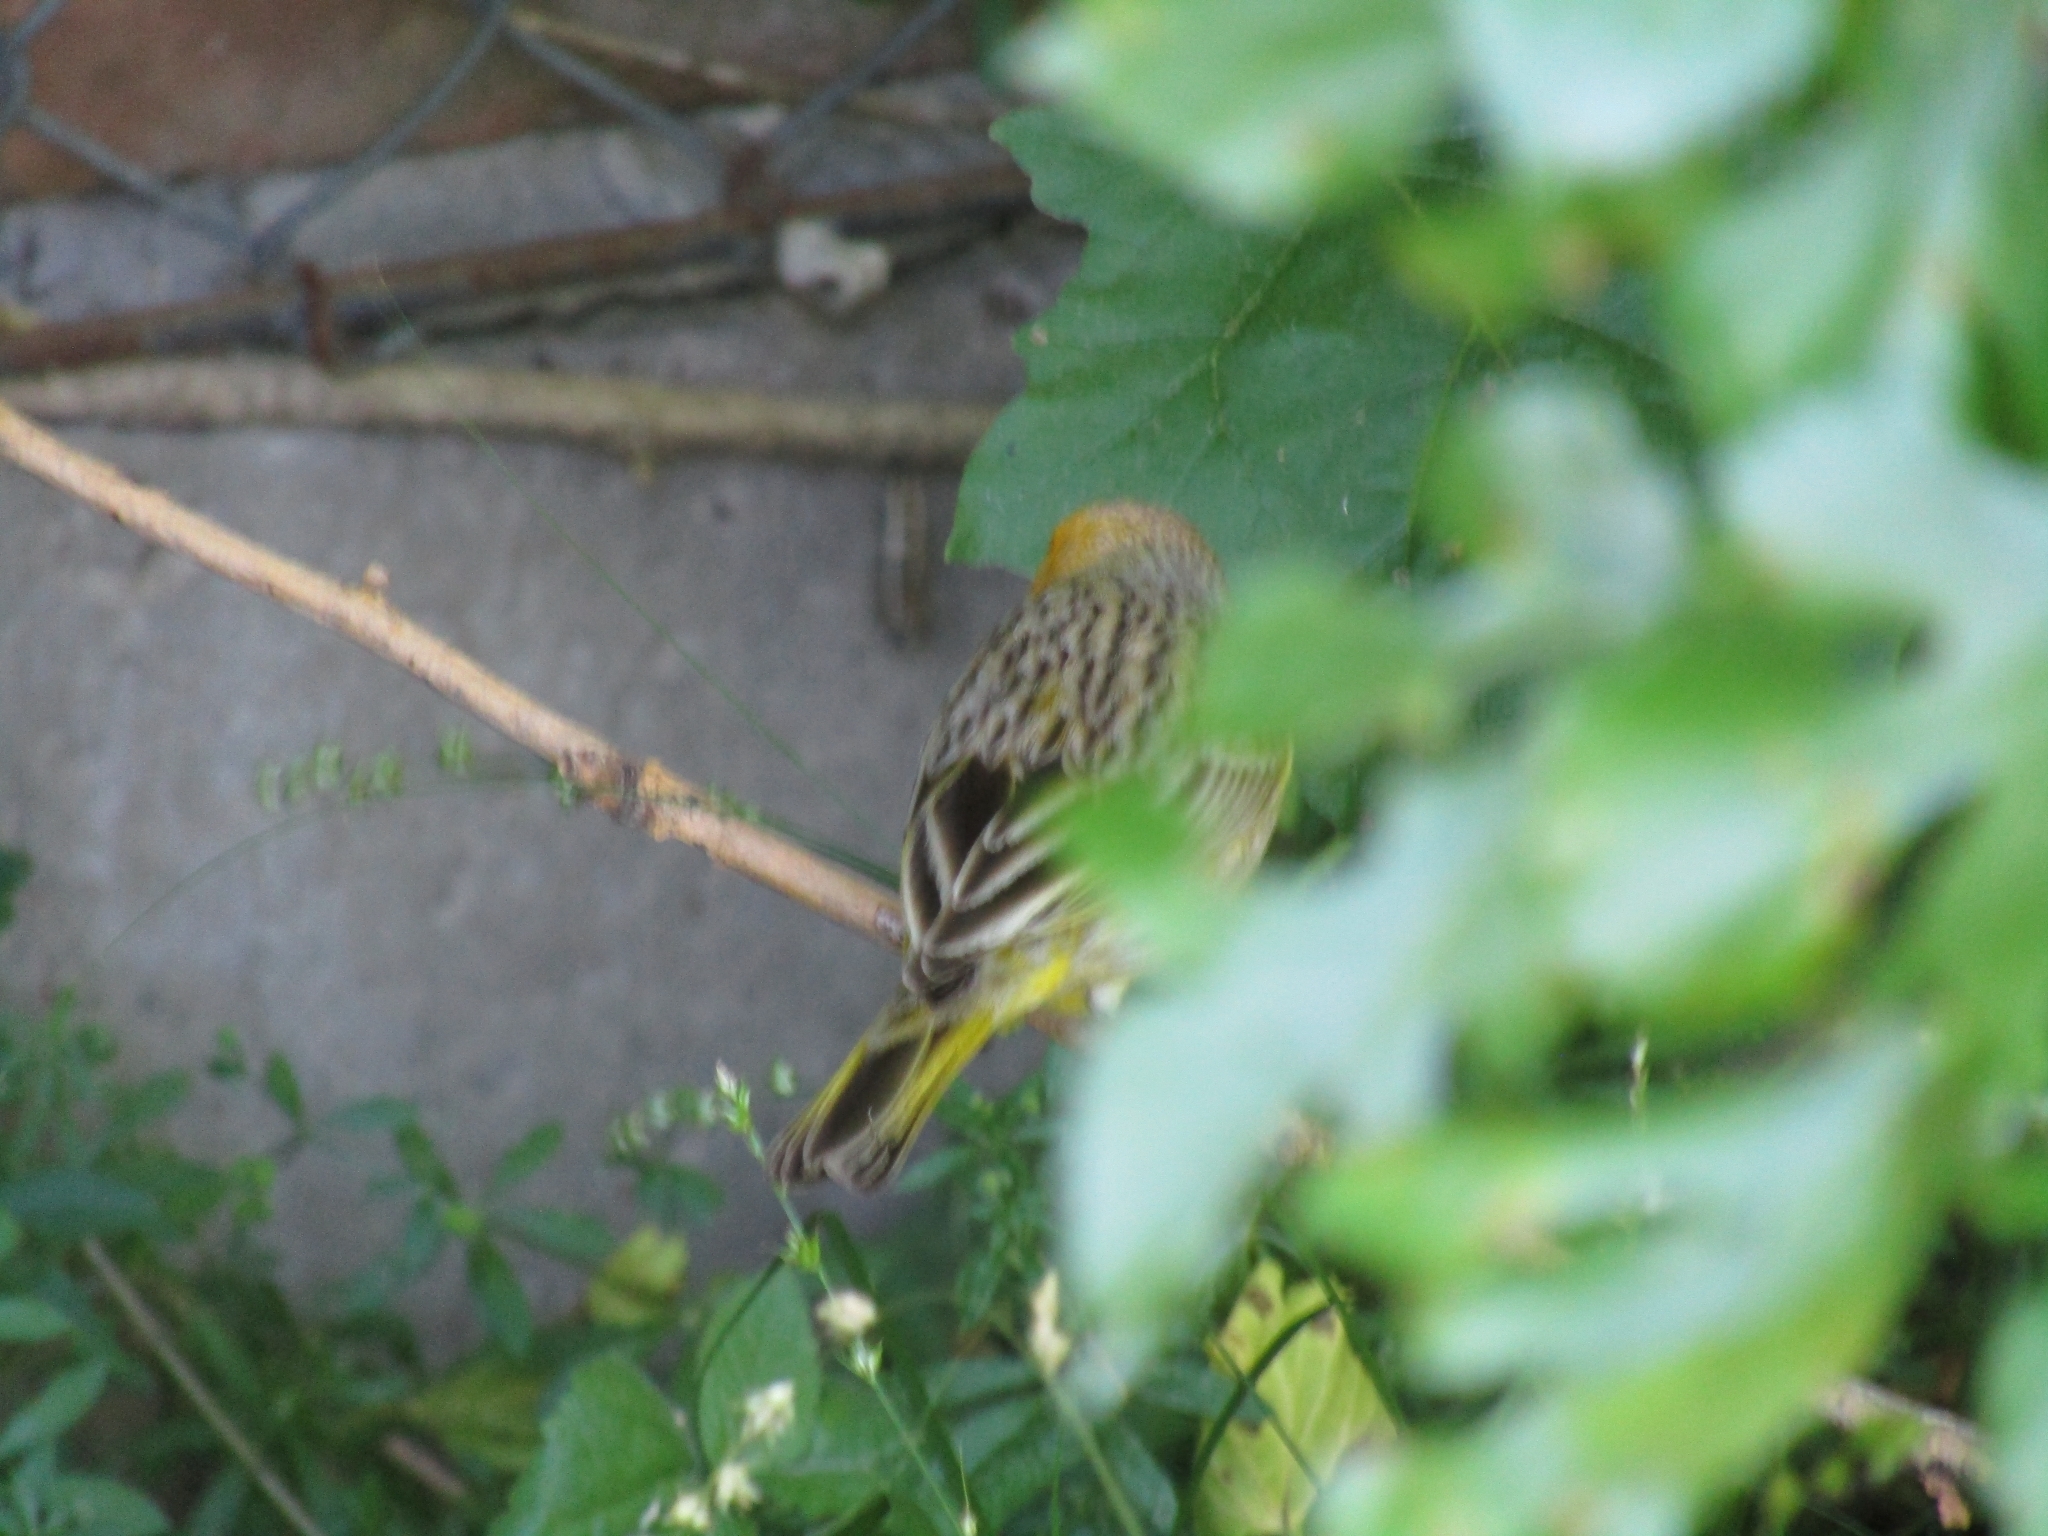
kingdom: Animalia
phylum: Chordata
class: Aves
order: Passeriformes
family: Thraupidae
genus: Sicalis
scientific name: Sicalis flaveola
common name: Saffron finch
